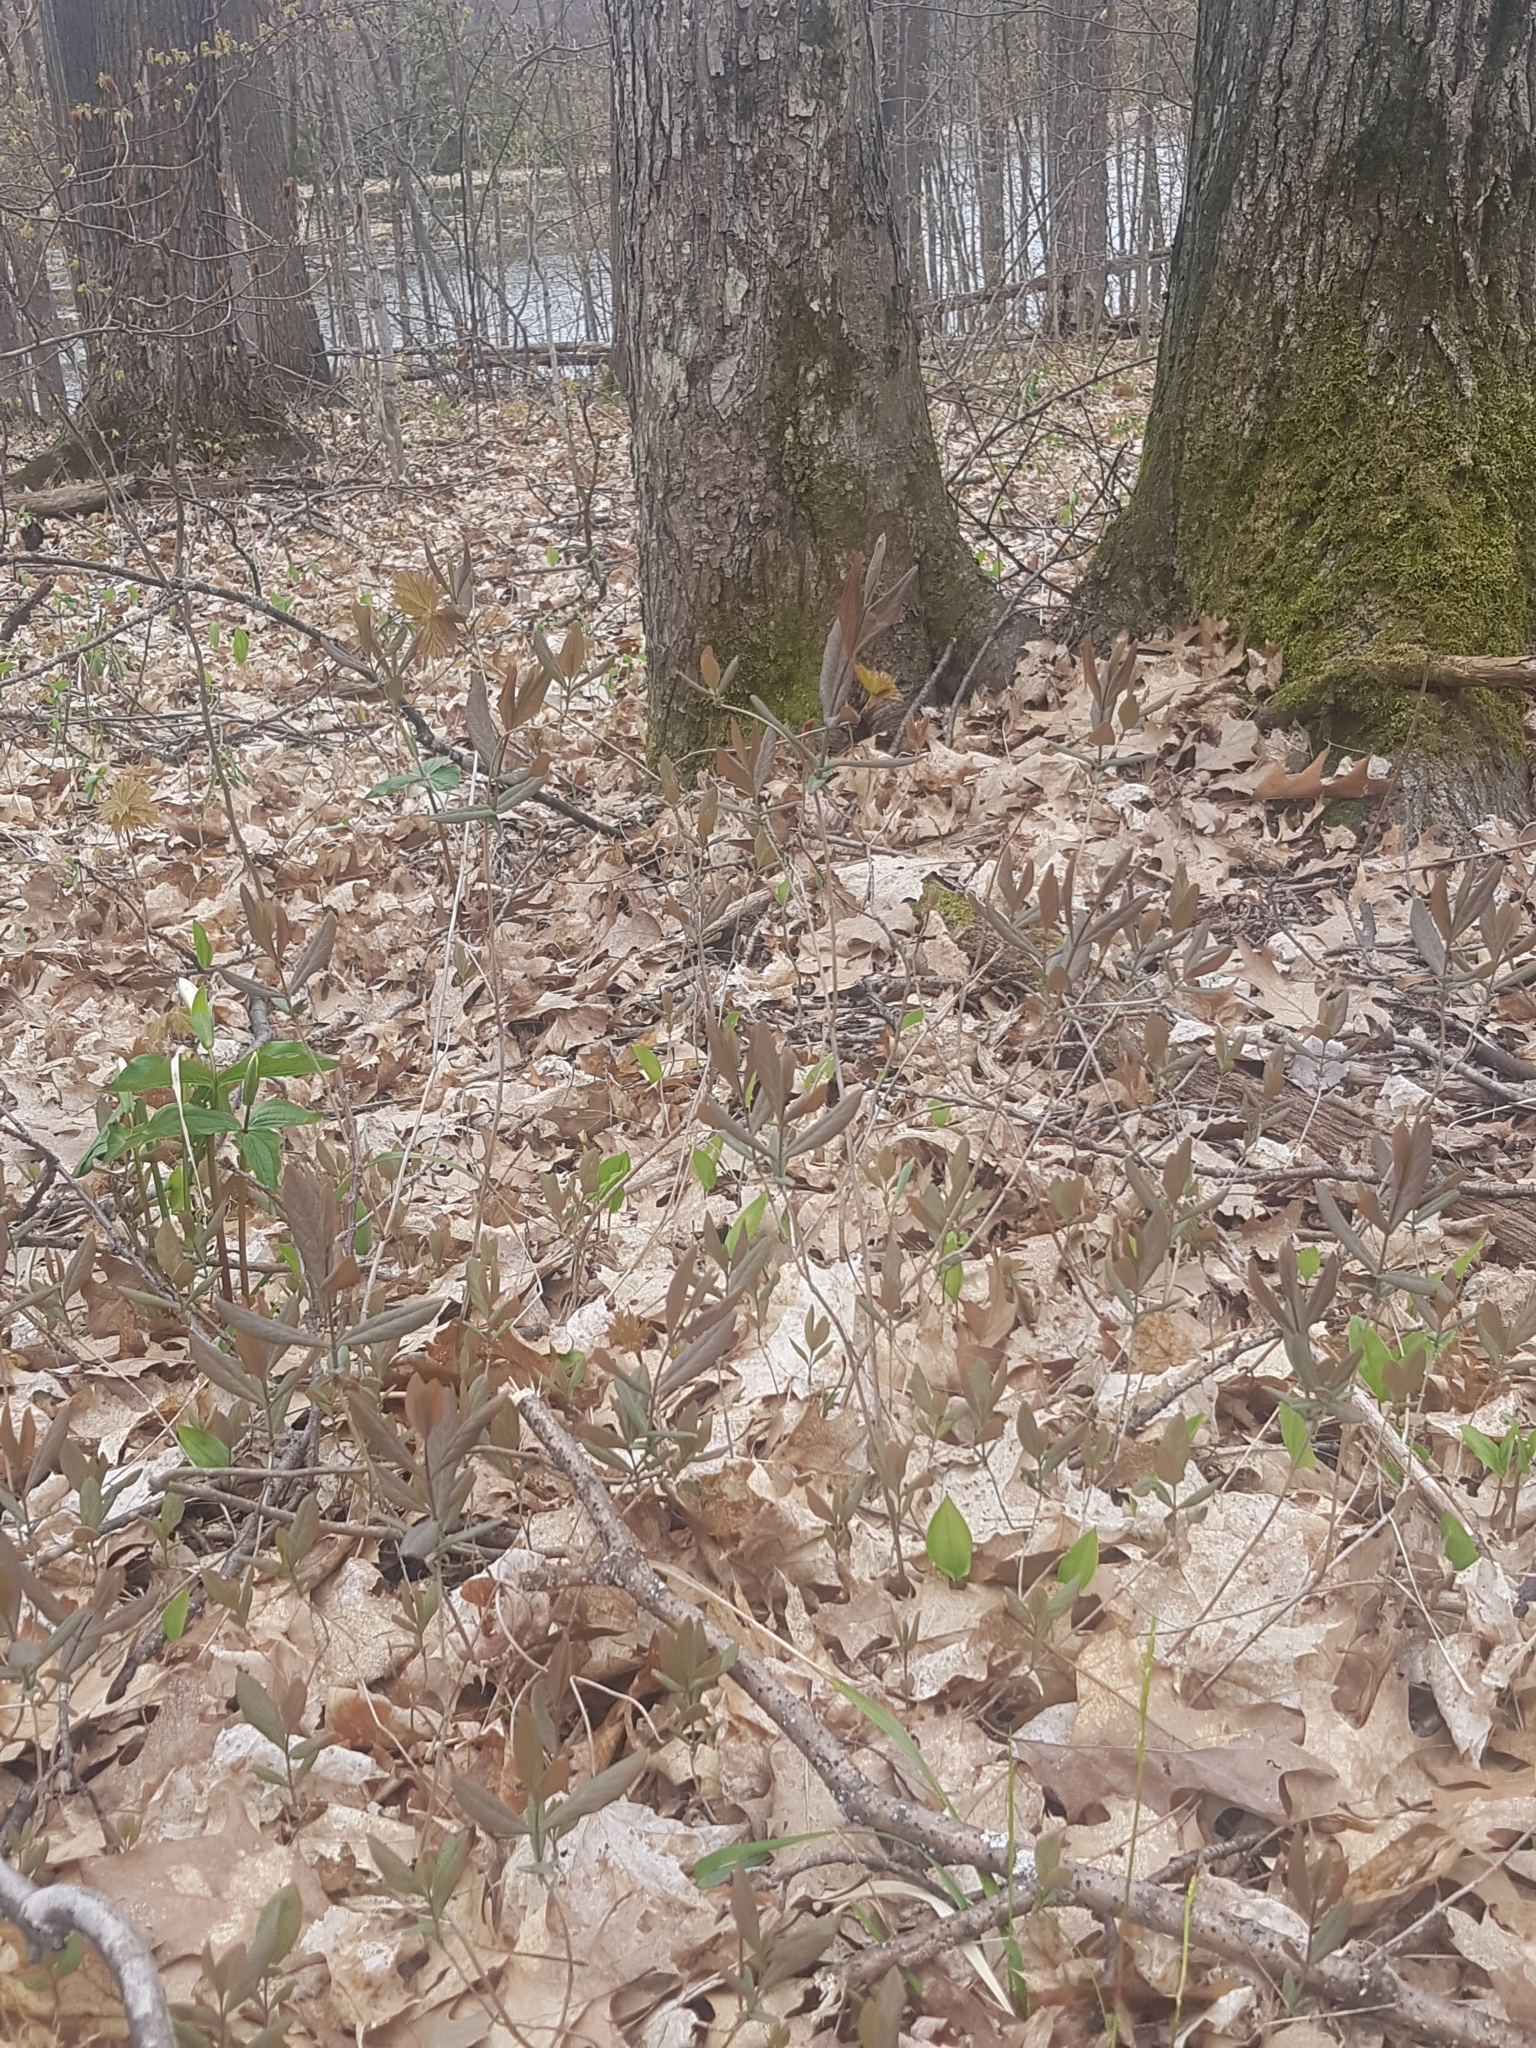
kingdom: Plantae
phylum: Tracheophyta
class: Magnoliopsida
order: Dipsacales
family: Caprifoliaceae
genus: Lonicera
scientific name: Lonicera dioica
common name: Limber honeysuckle
